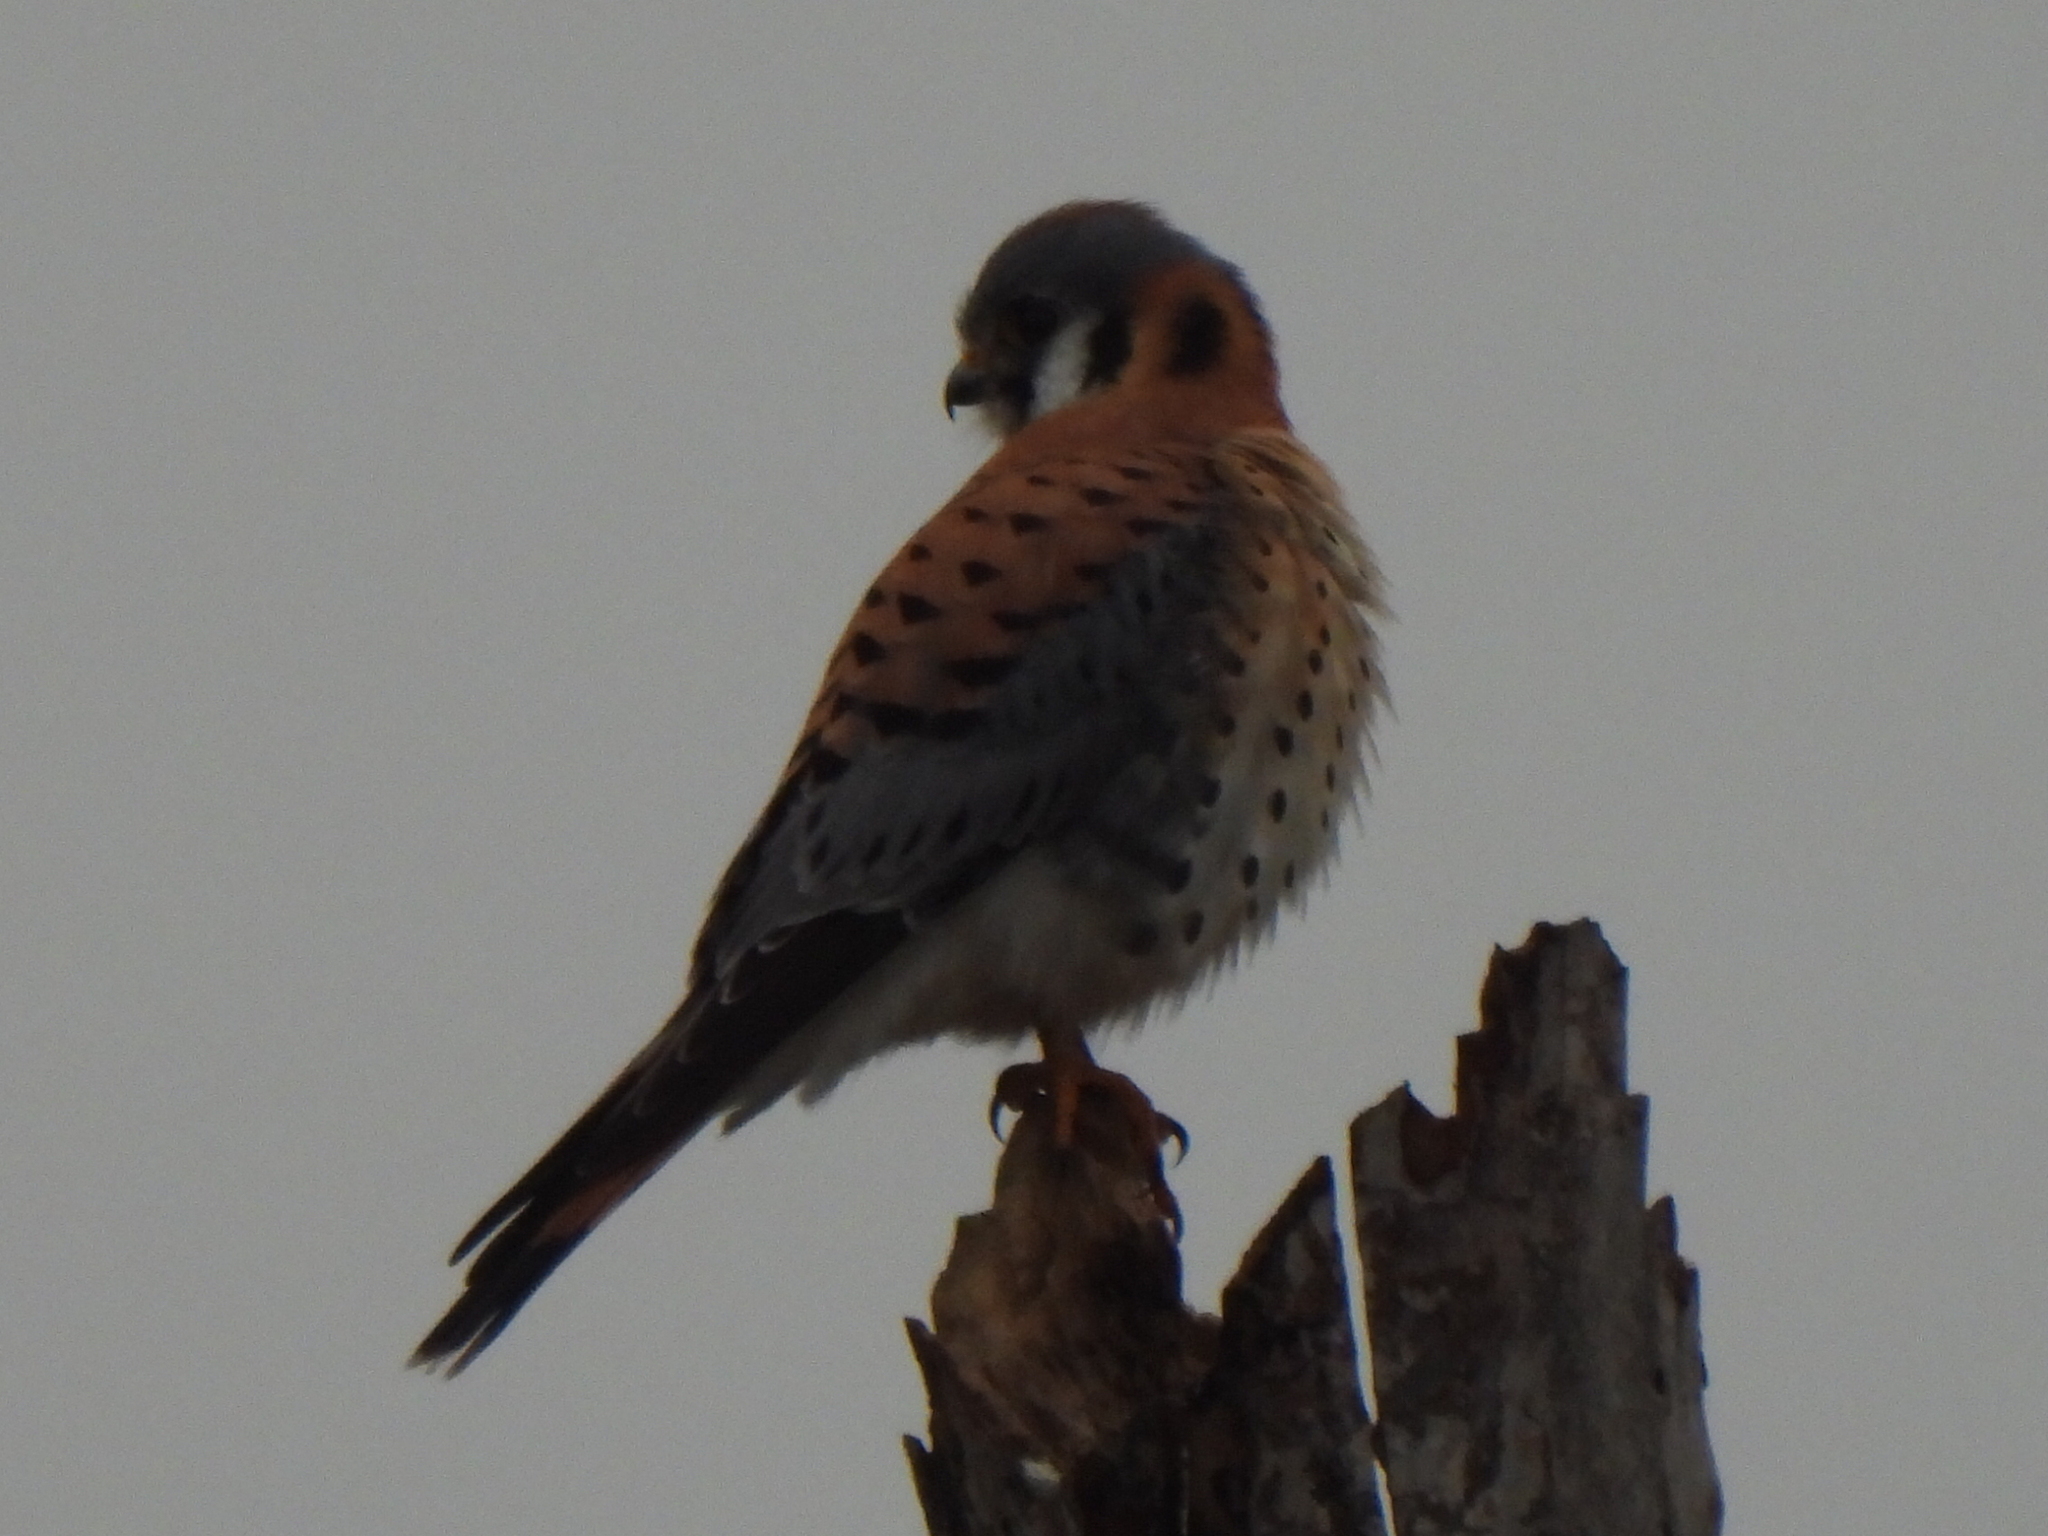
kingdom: Animalia
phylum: Chordata
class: Aves
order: Falconiformes
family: Falconidae
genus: Falco
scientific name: Falco sparverius
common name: American kestrel
